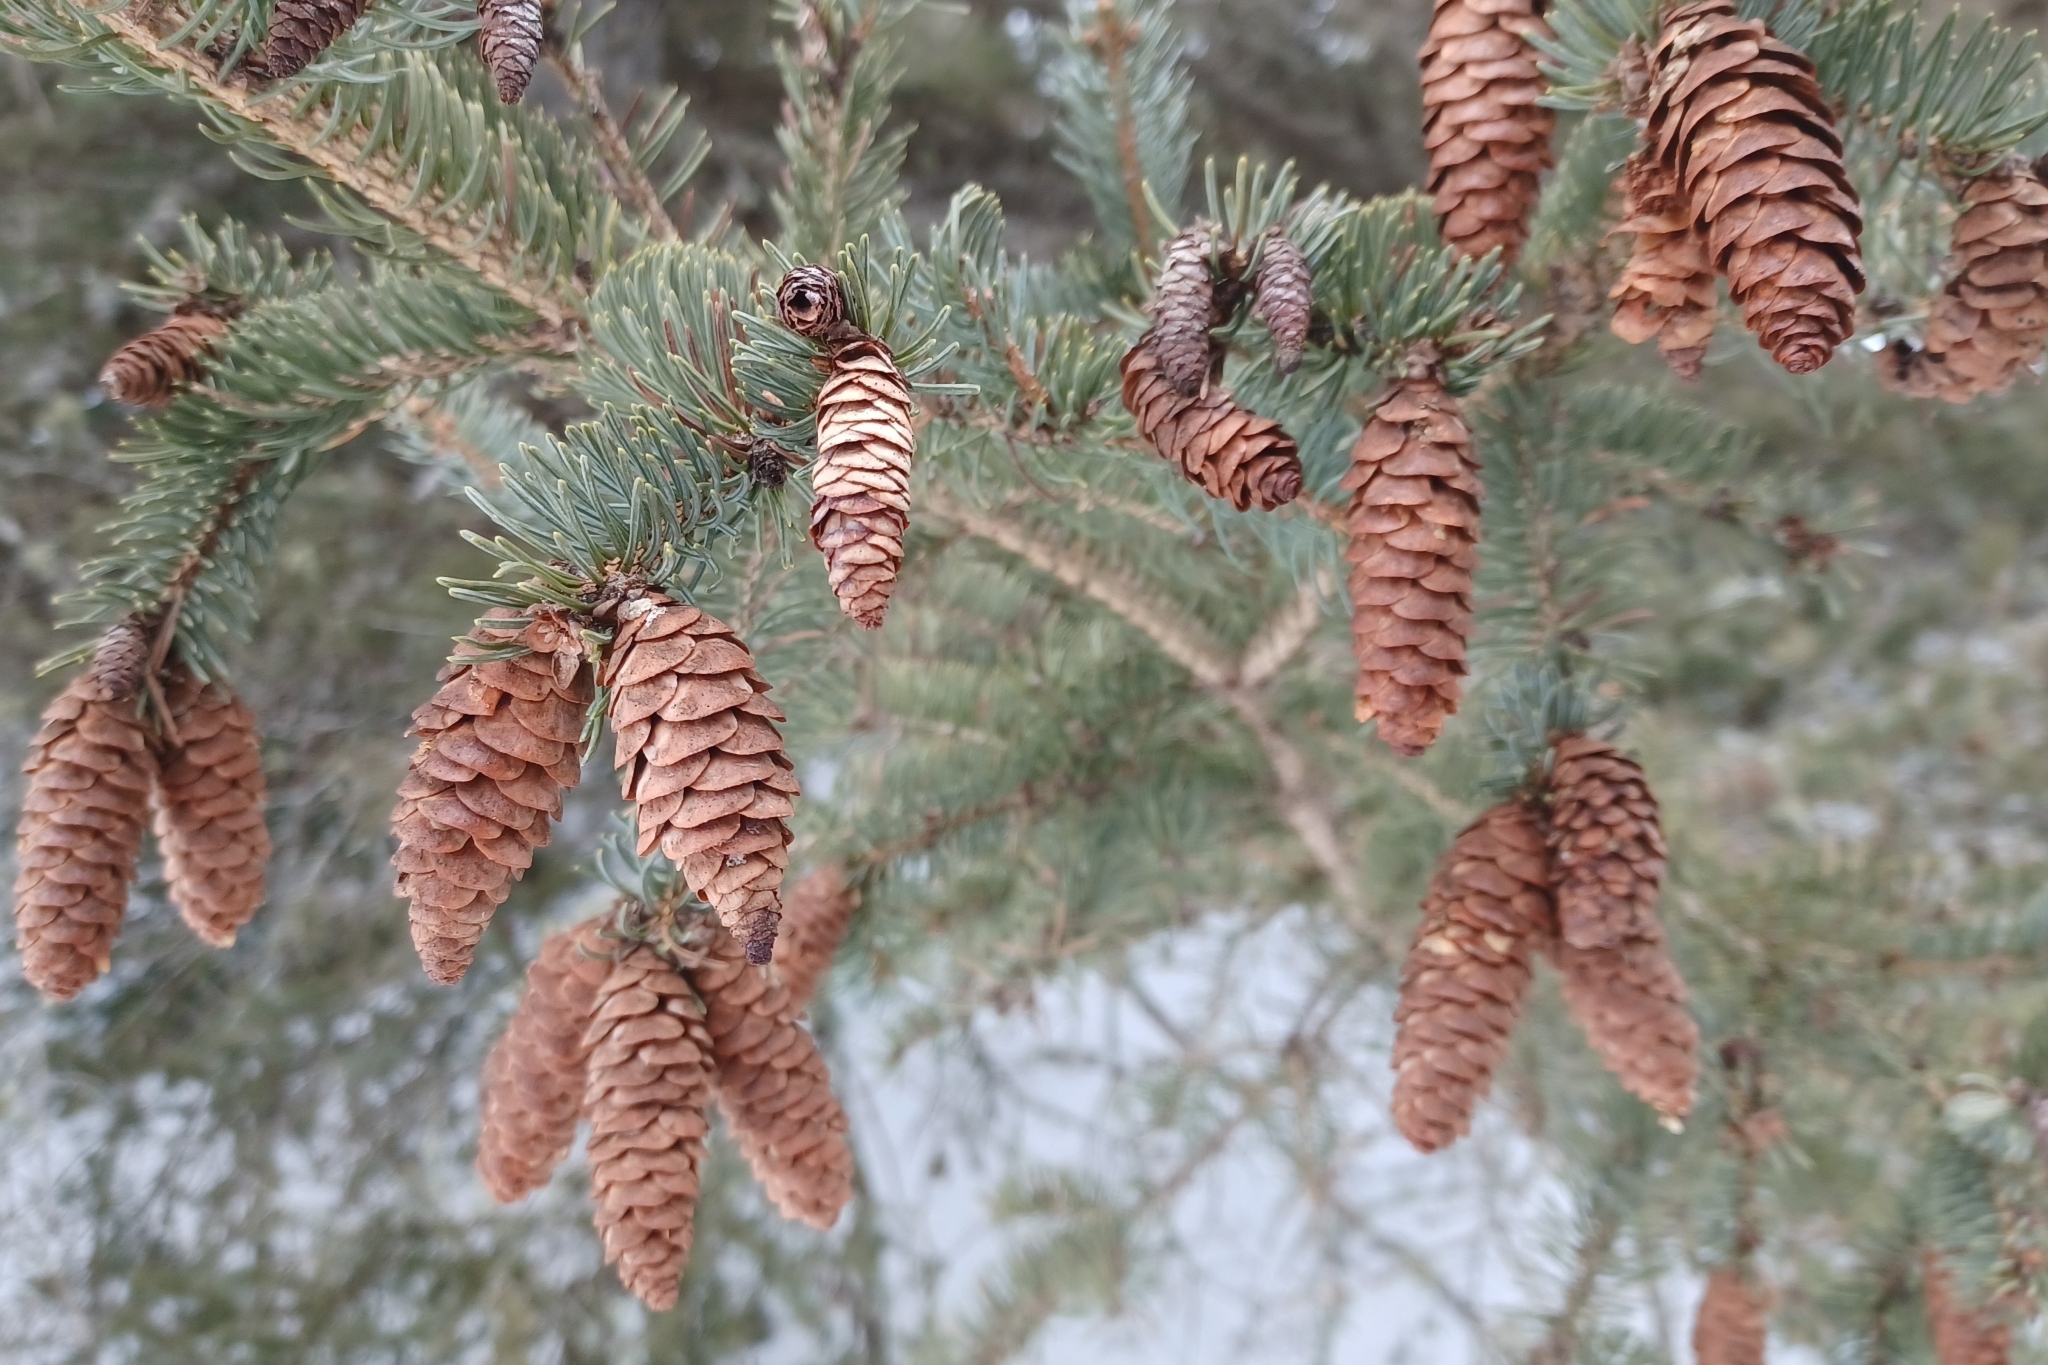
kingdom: Plantae
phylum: Tracheophyta
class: Pinopsida
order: Pinales
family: Pinaceae
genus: Picea
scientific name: Picea glauca
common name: White spruce
